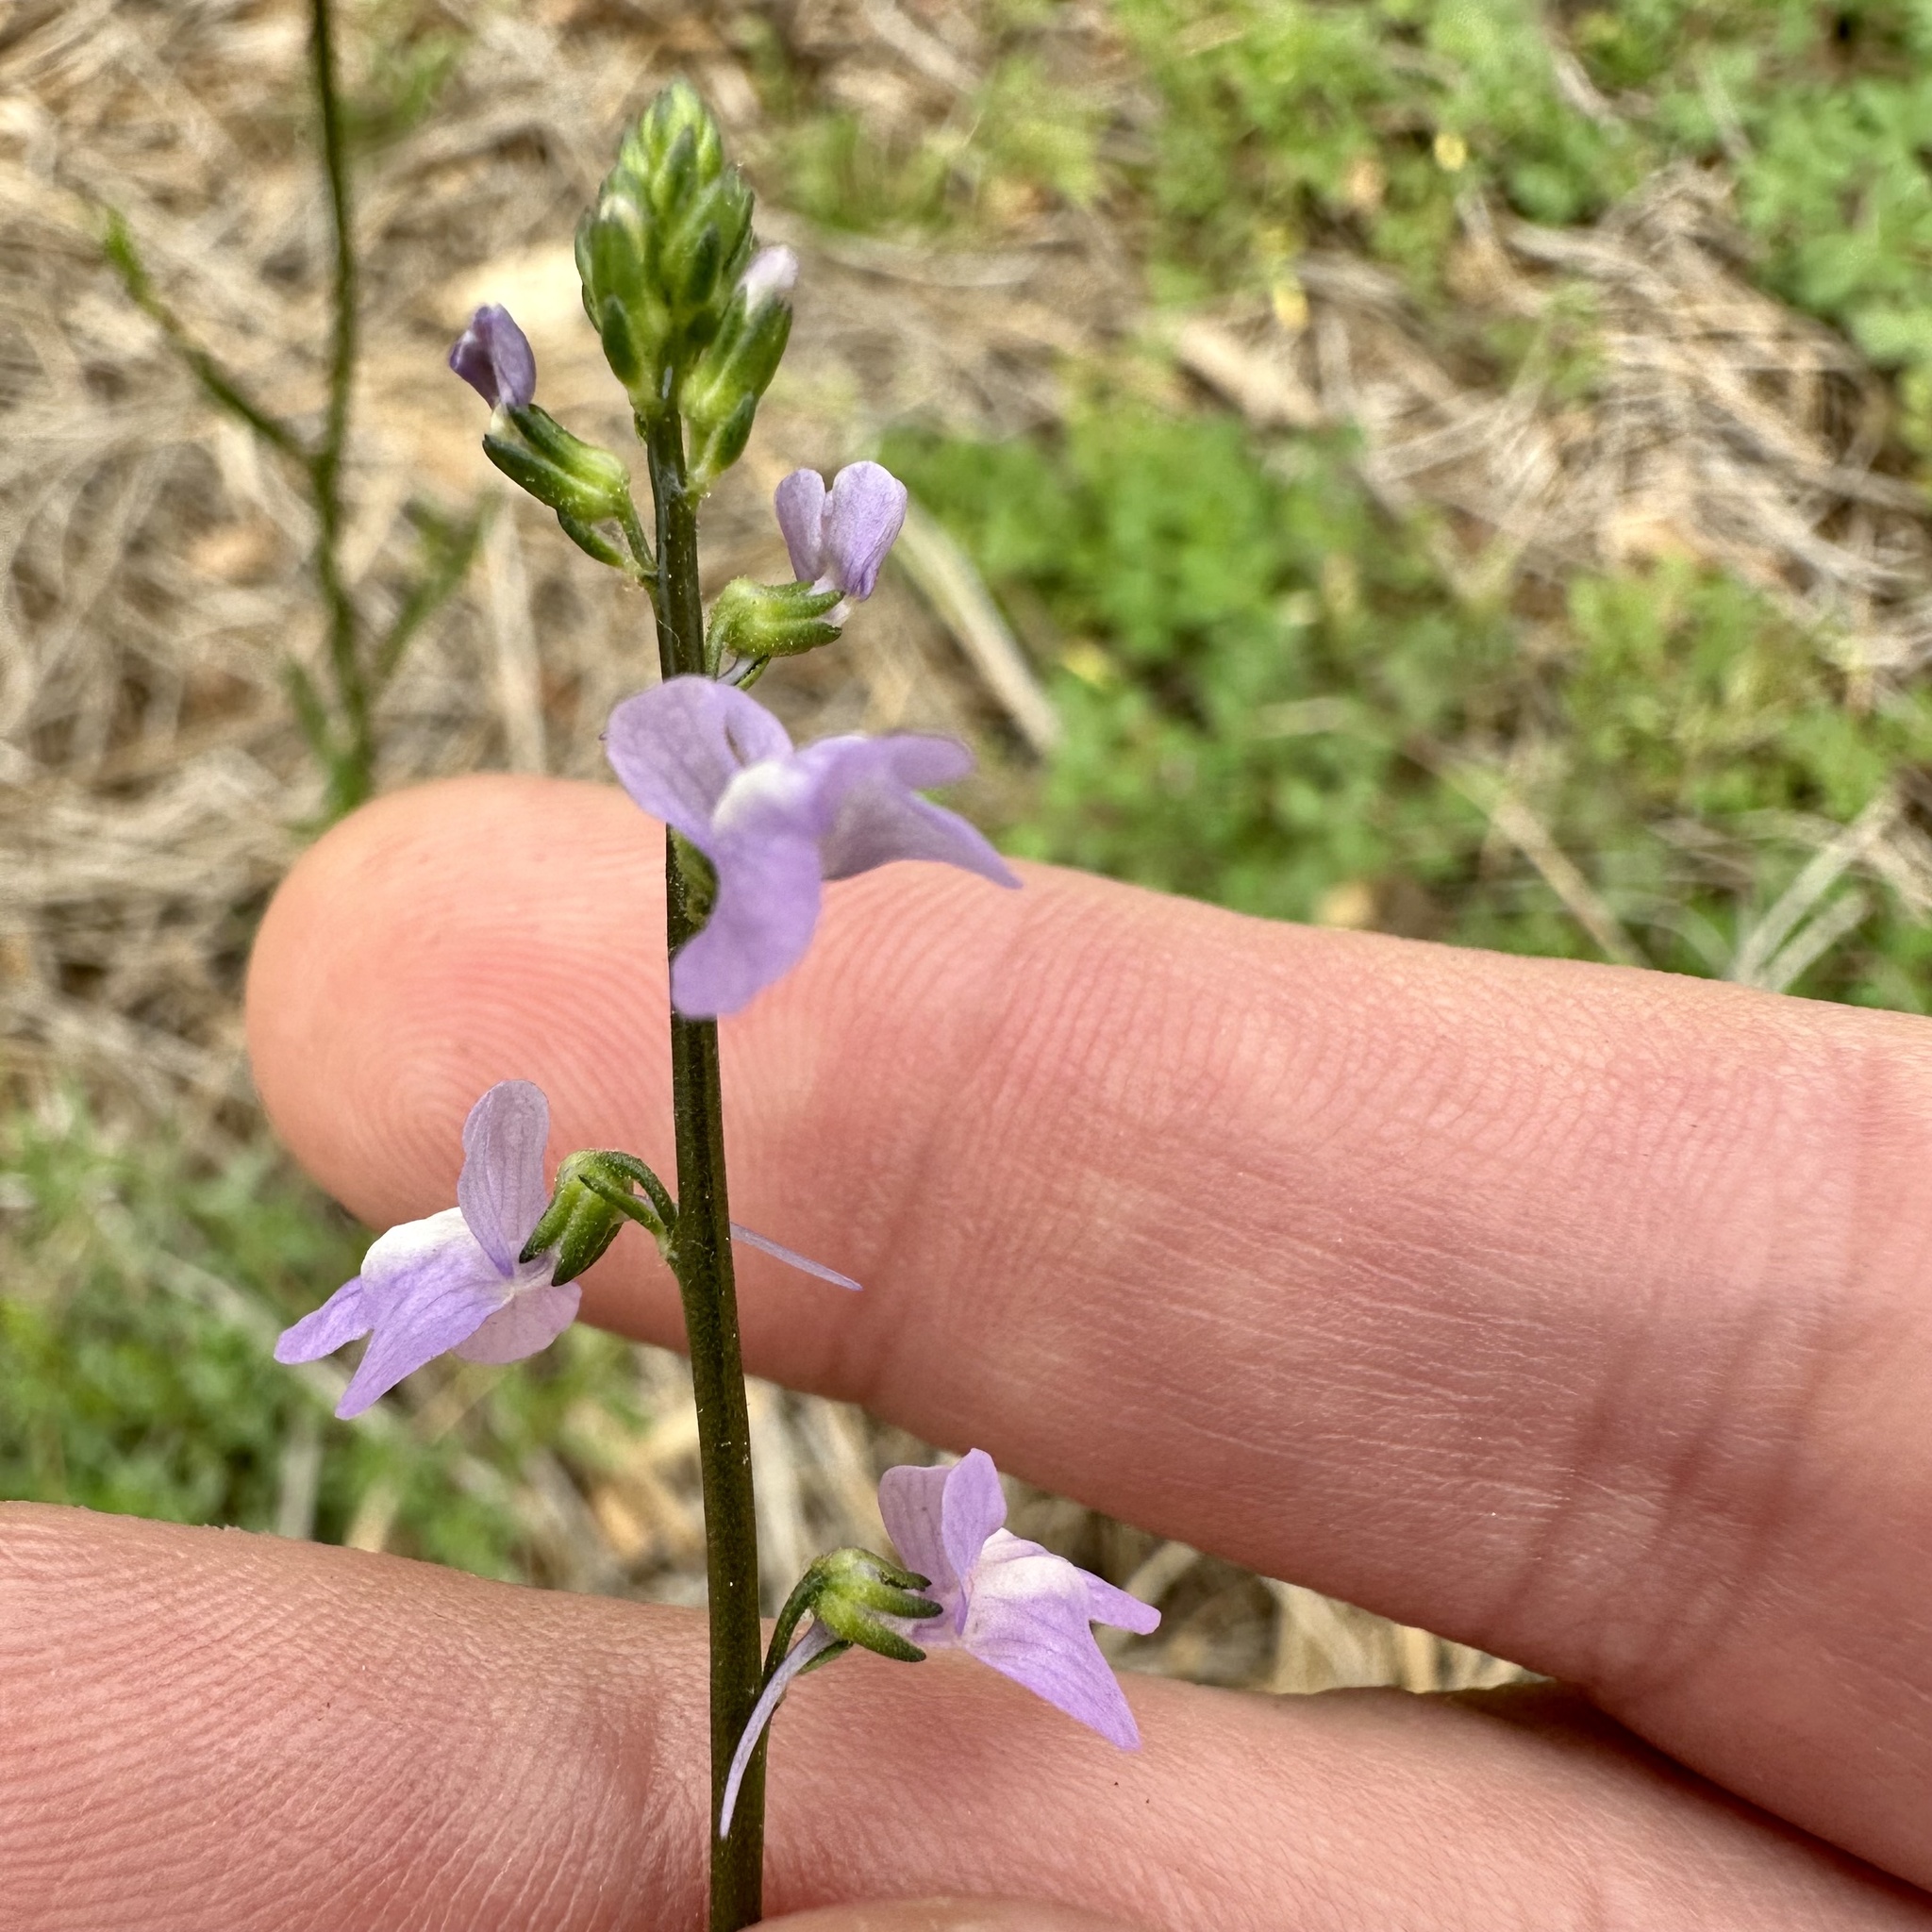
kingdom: Plantae
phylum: Tracheophyta
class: Magnoliopsida
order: Lamiales
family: Plantaginaceae
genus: Nuttallanthus
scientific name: Nuttallanthus canadensis
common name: Blue toadflax
